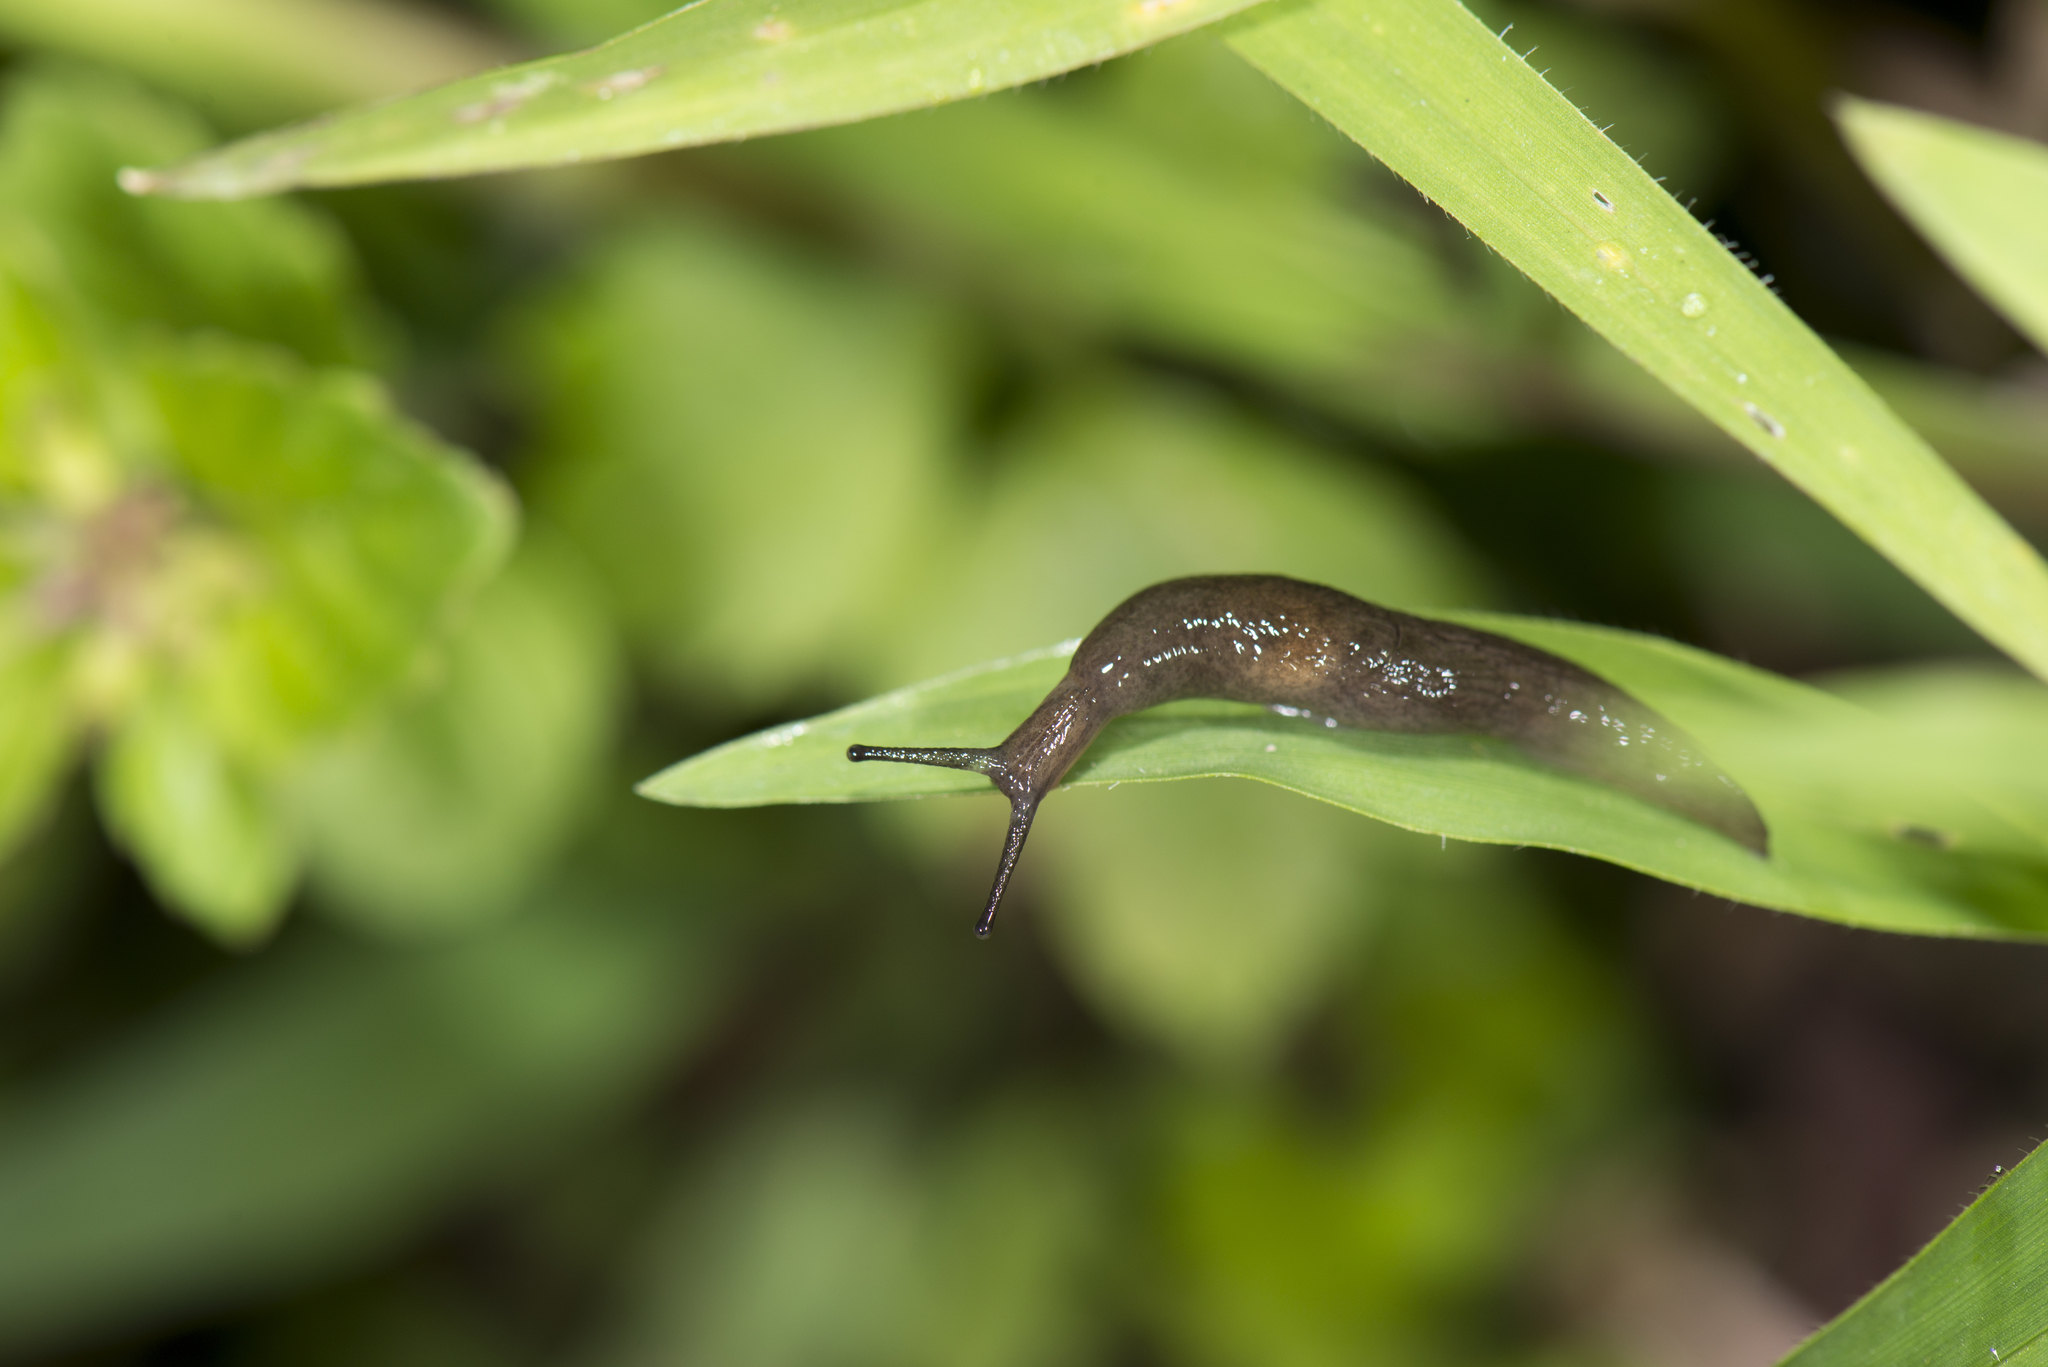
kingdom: Animalia
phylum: Mollusca
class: Gastropoda
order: Stylommatophora
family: Agriolimacidae
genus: Deroceras
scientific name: Deroceras laeve
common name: Marsh slug
